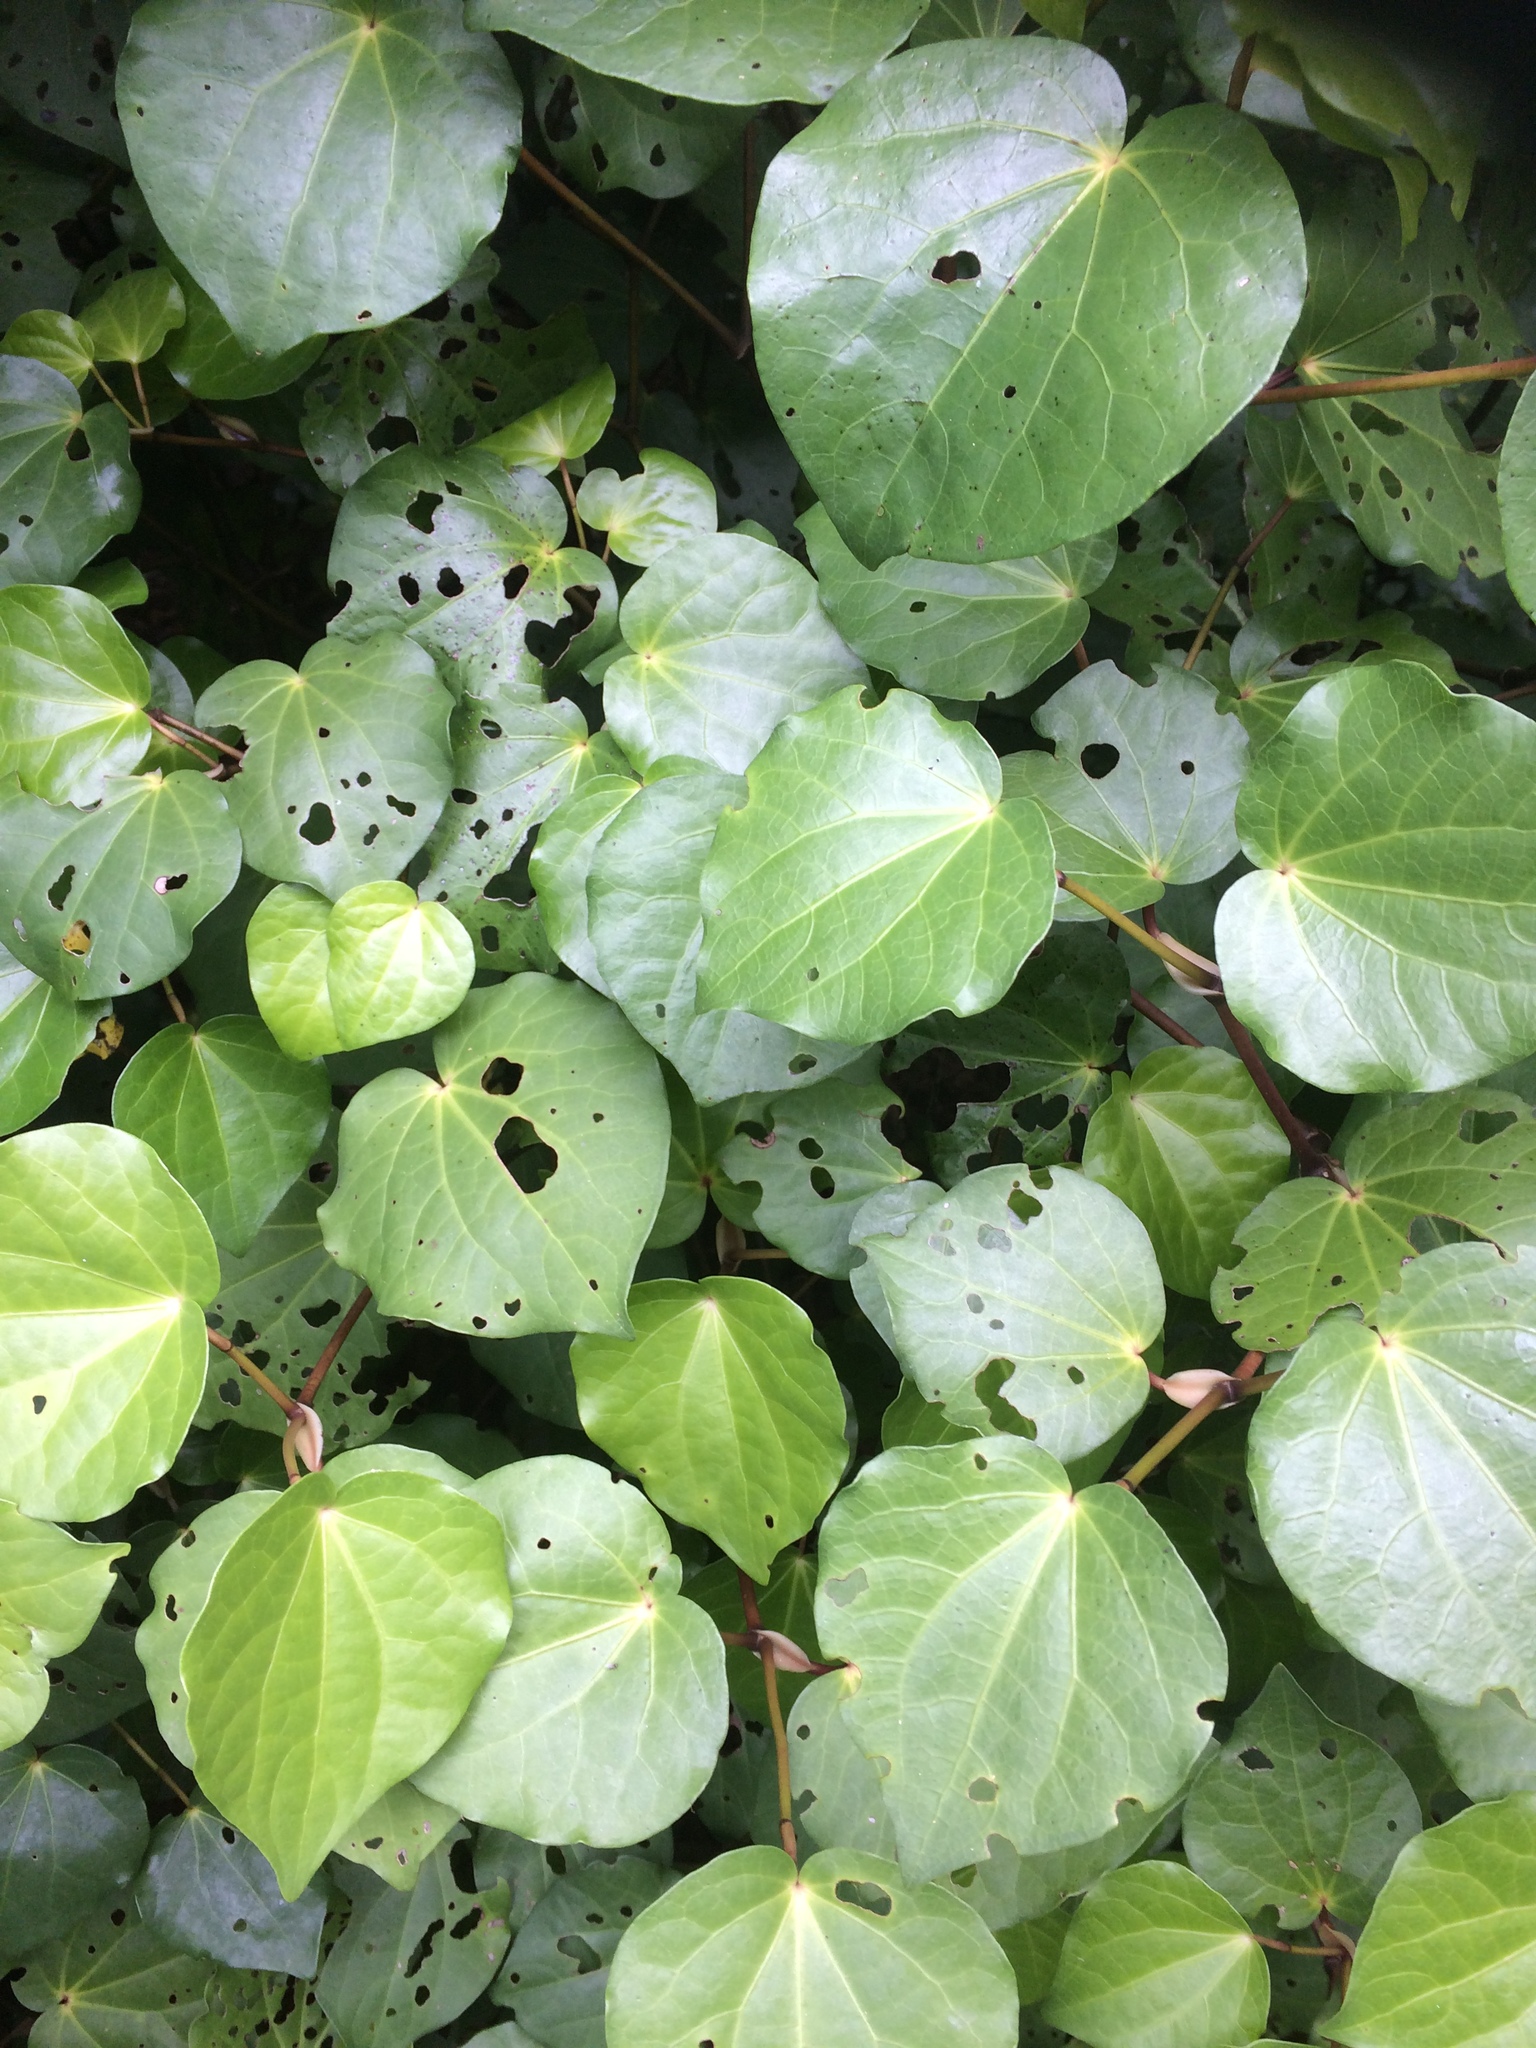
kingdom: Plantae
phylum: Tracheophyta
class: Magnoliopsida
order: Piperales
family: Piperaceae
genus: Macropiper
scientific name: Macropiper excelsum
